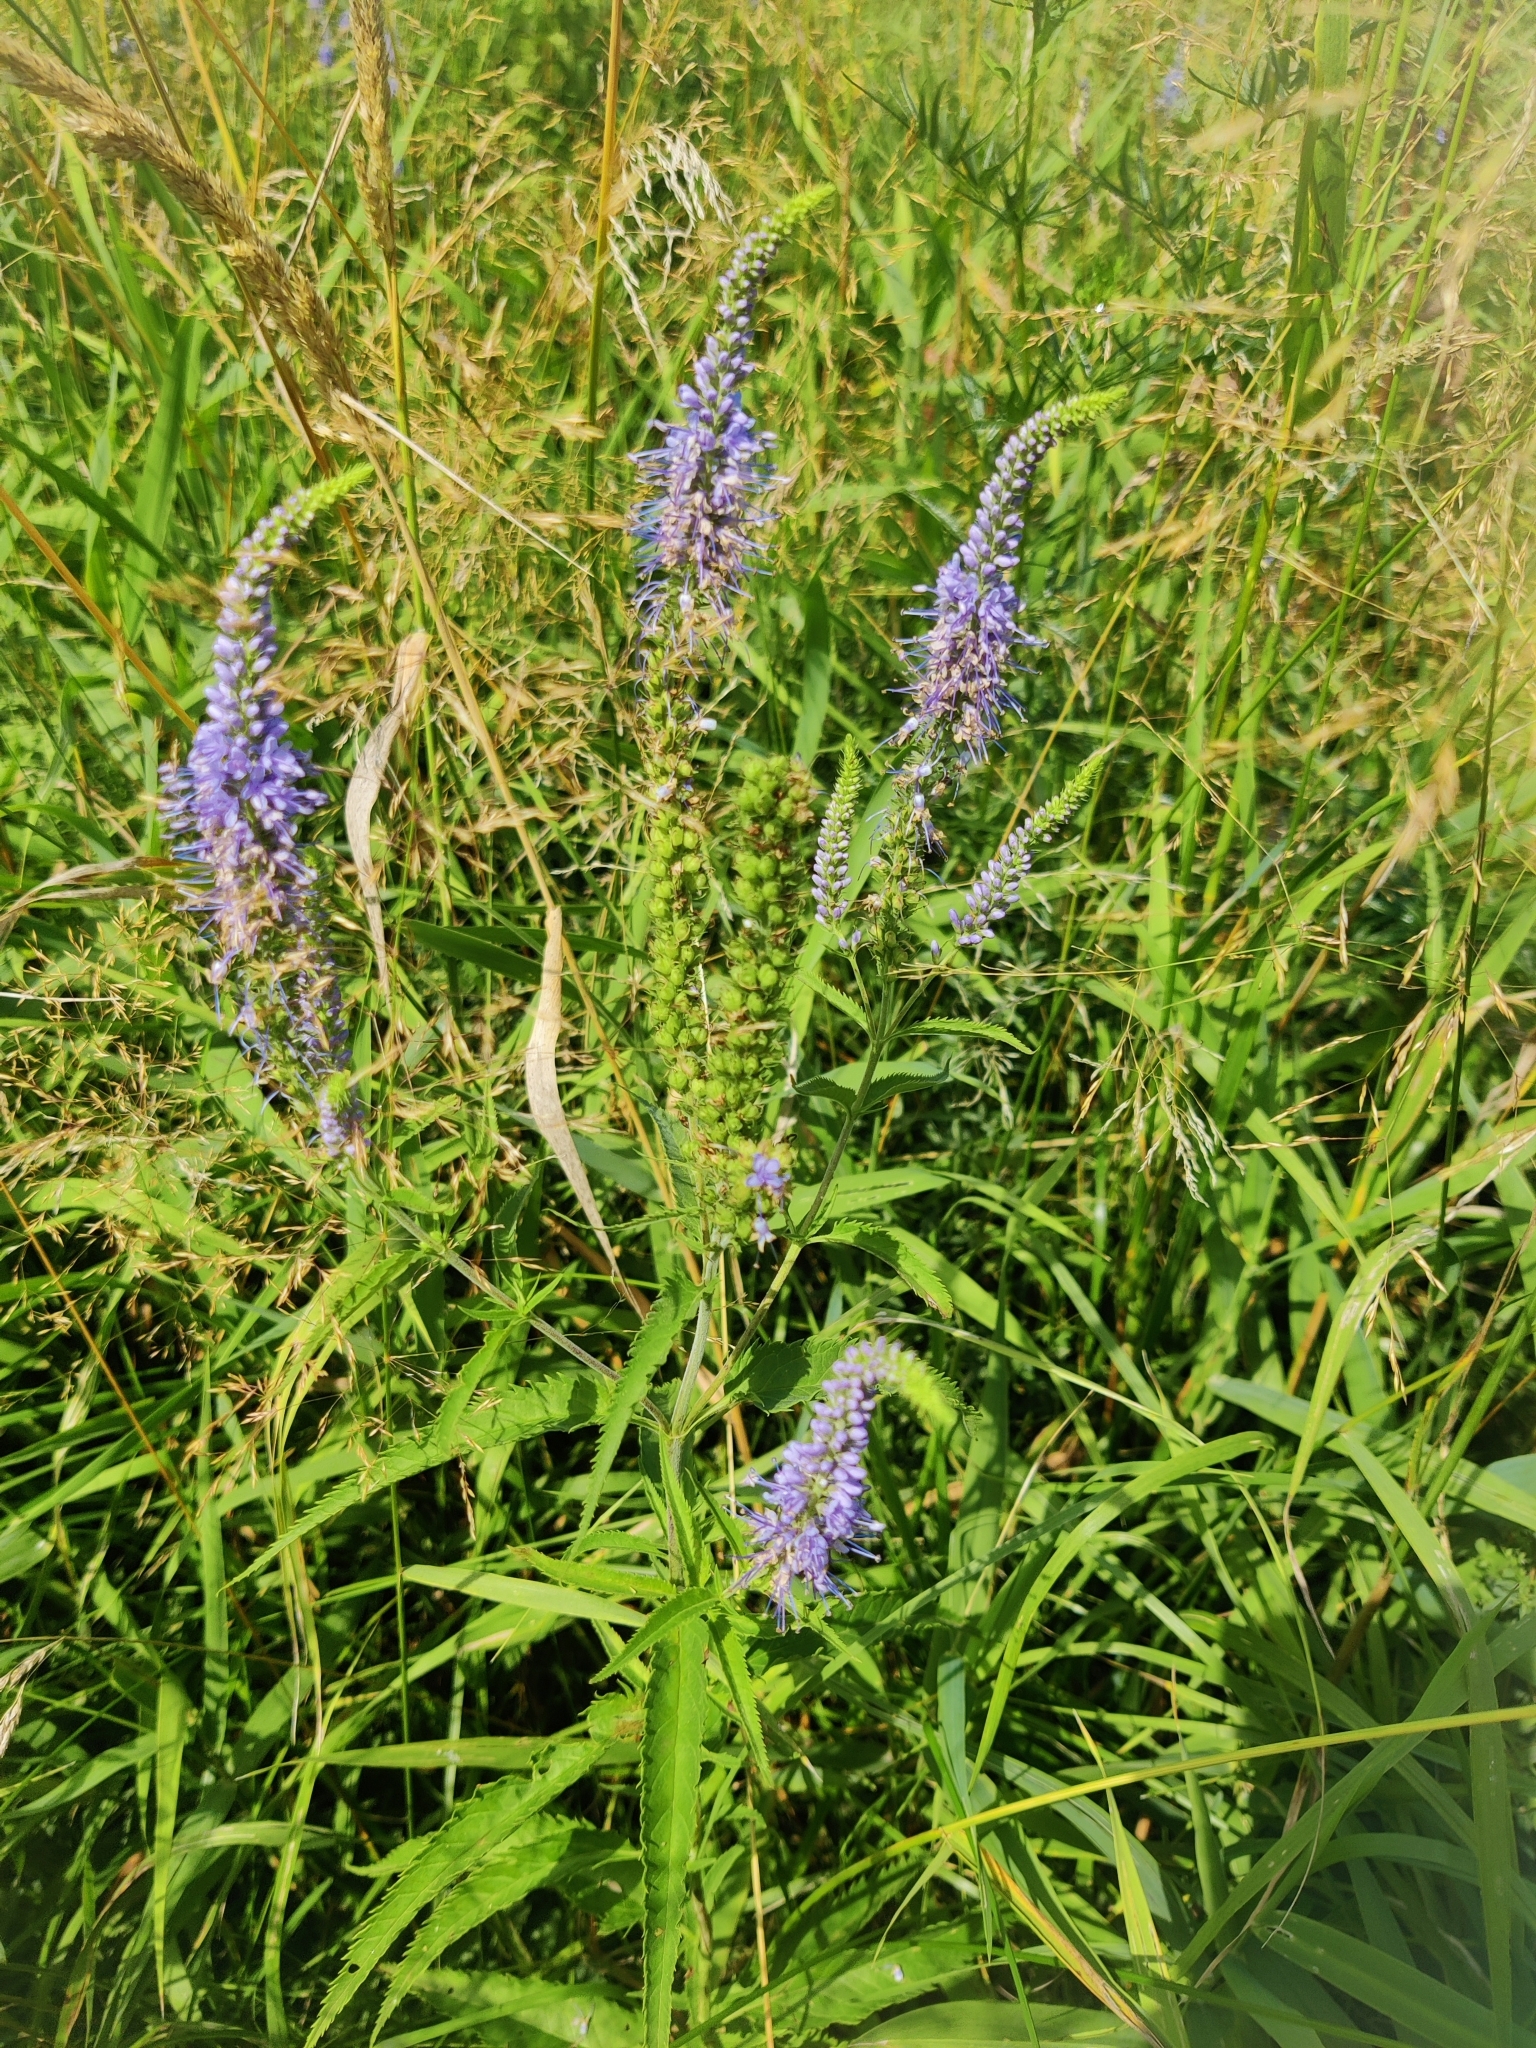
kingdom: Plantae
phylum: Tracheophyta
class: Magnoliopsida
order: Lamiales
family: Plantaginaceae
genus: Veronica
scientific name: Veronica longifolia
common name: Garden speedwell
